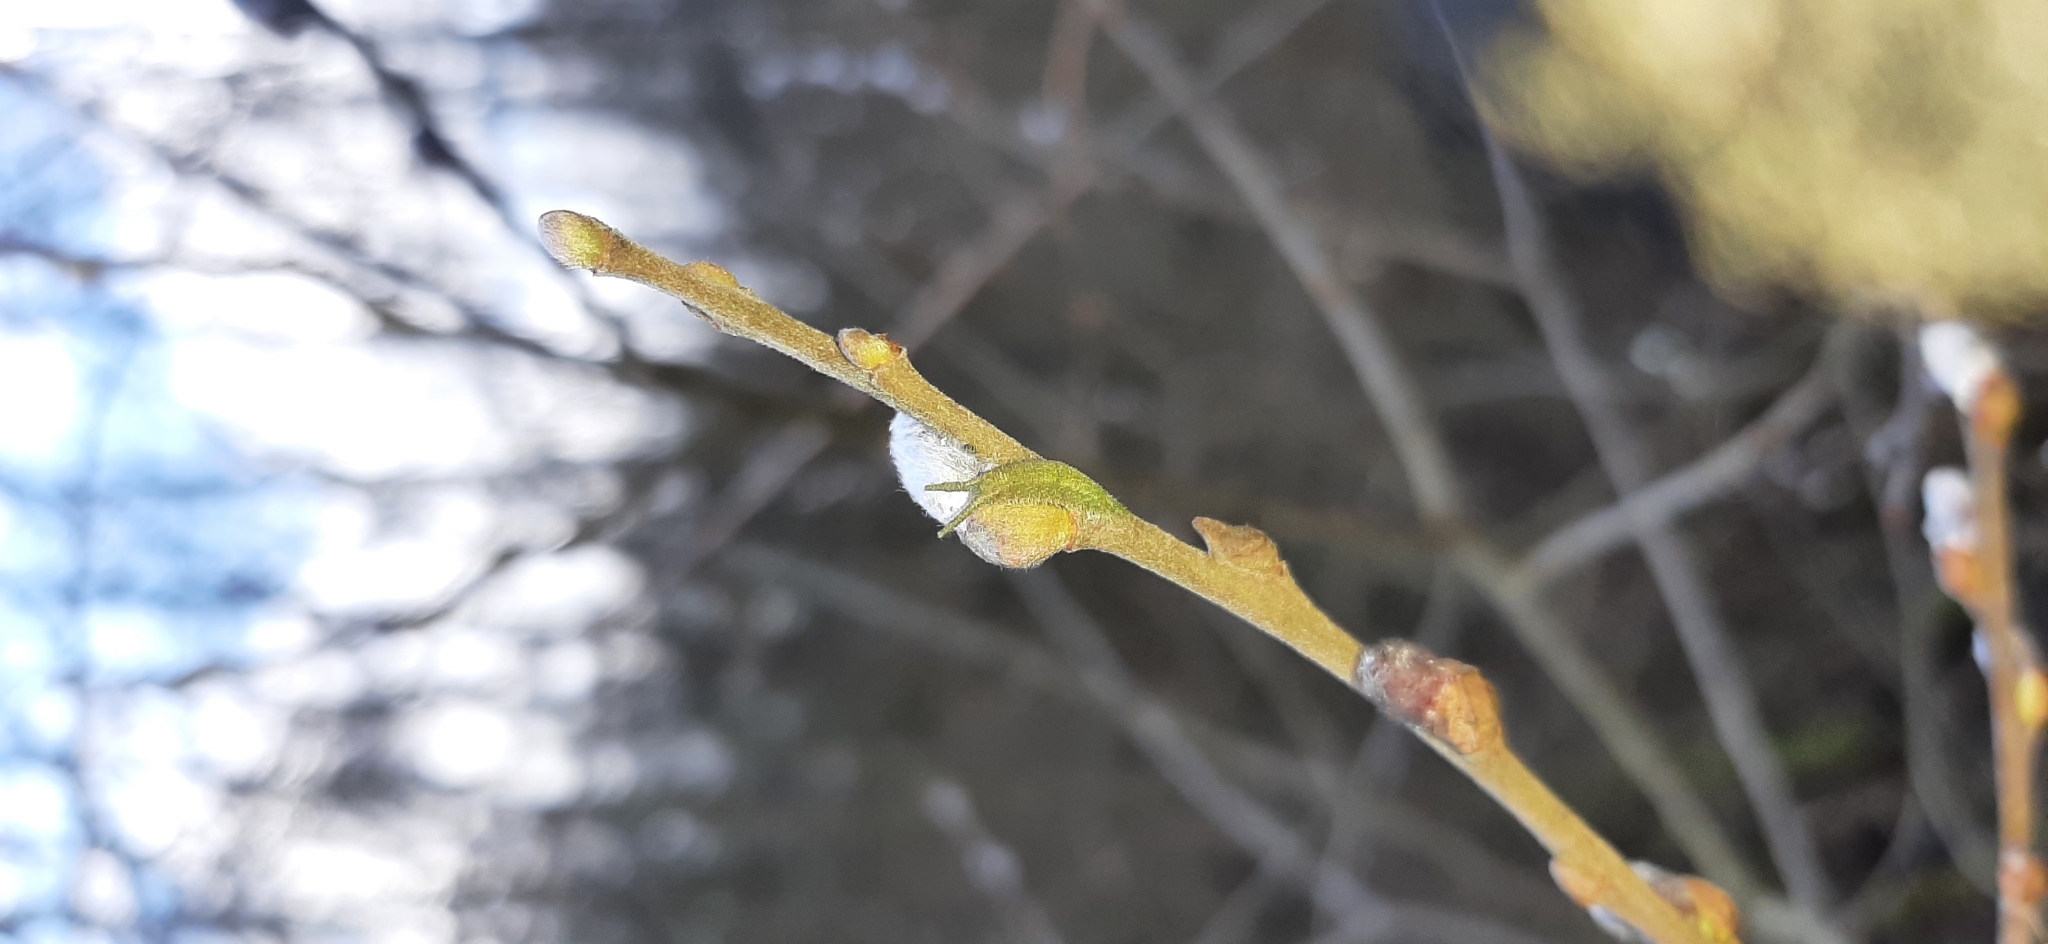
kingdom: Animalia
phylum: Arthropoda
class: Insecta
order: Lepidoptera
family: Nymphalidae
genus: Apatura
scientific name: Apatura iris
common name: Purple emperor
